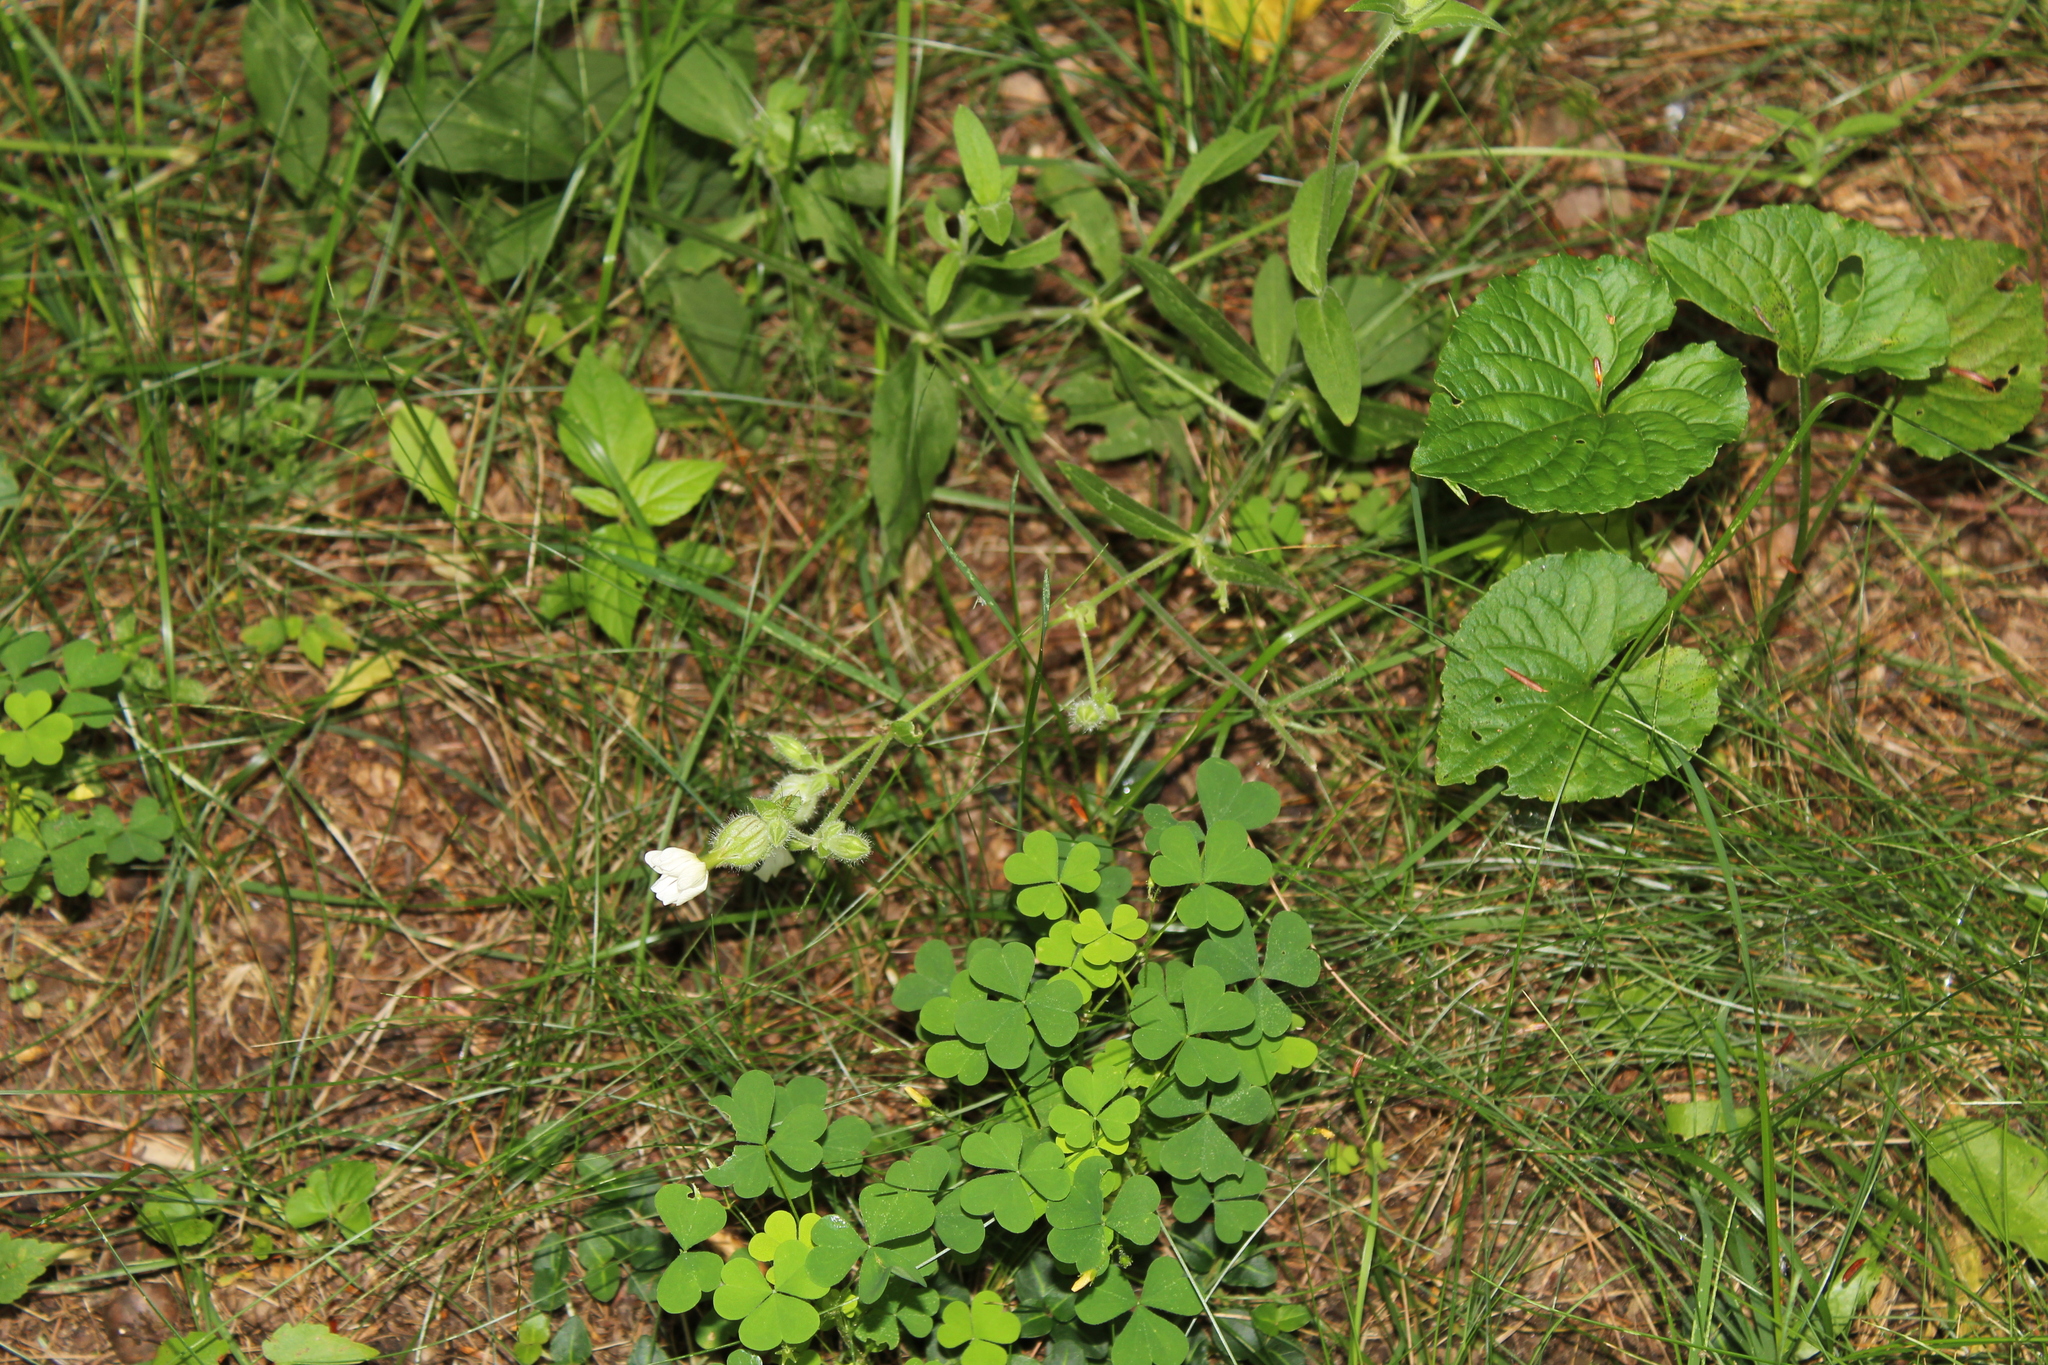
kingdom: Plantae
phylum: Tracheophyta
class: Magnoliopsida
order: Caryophyllales
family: Caryophyllaceae
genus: Silene
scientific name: Silene latifolia
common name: White campion
